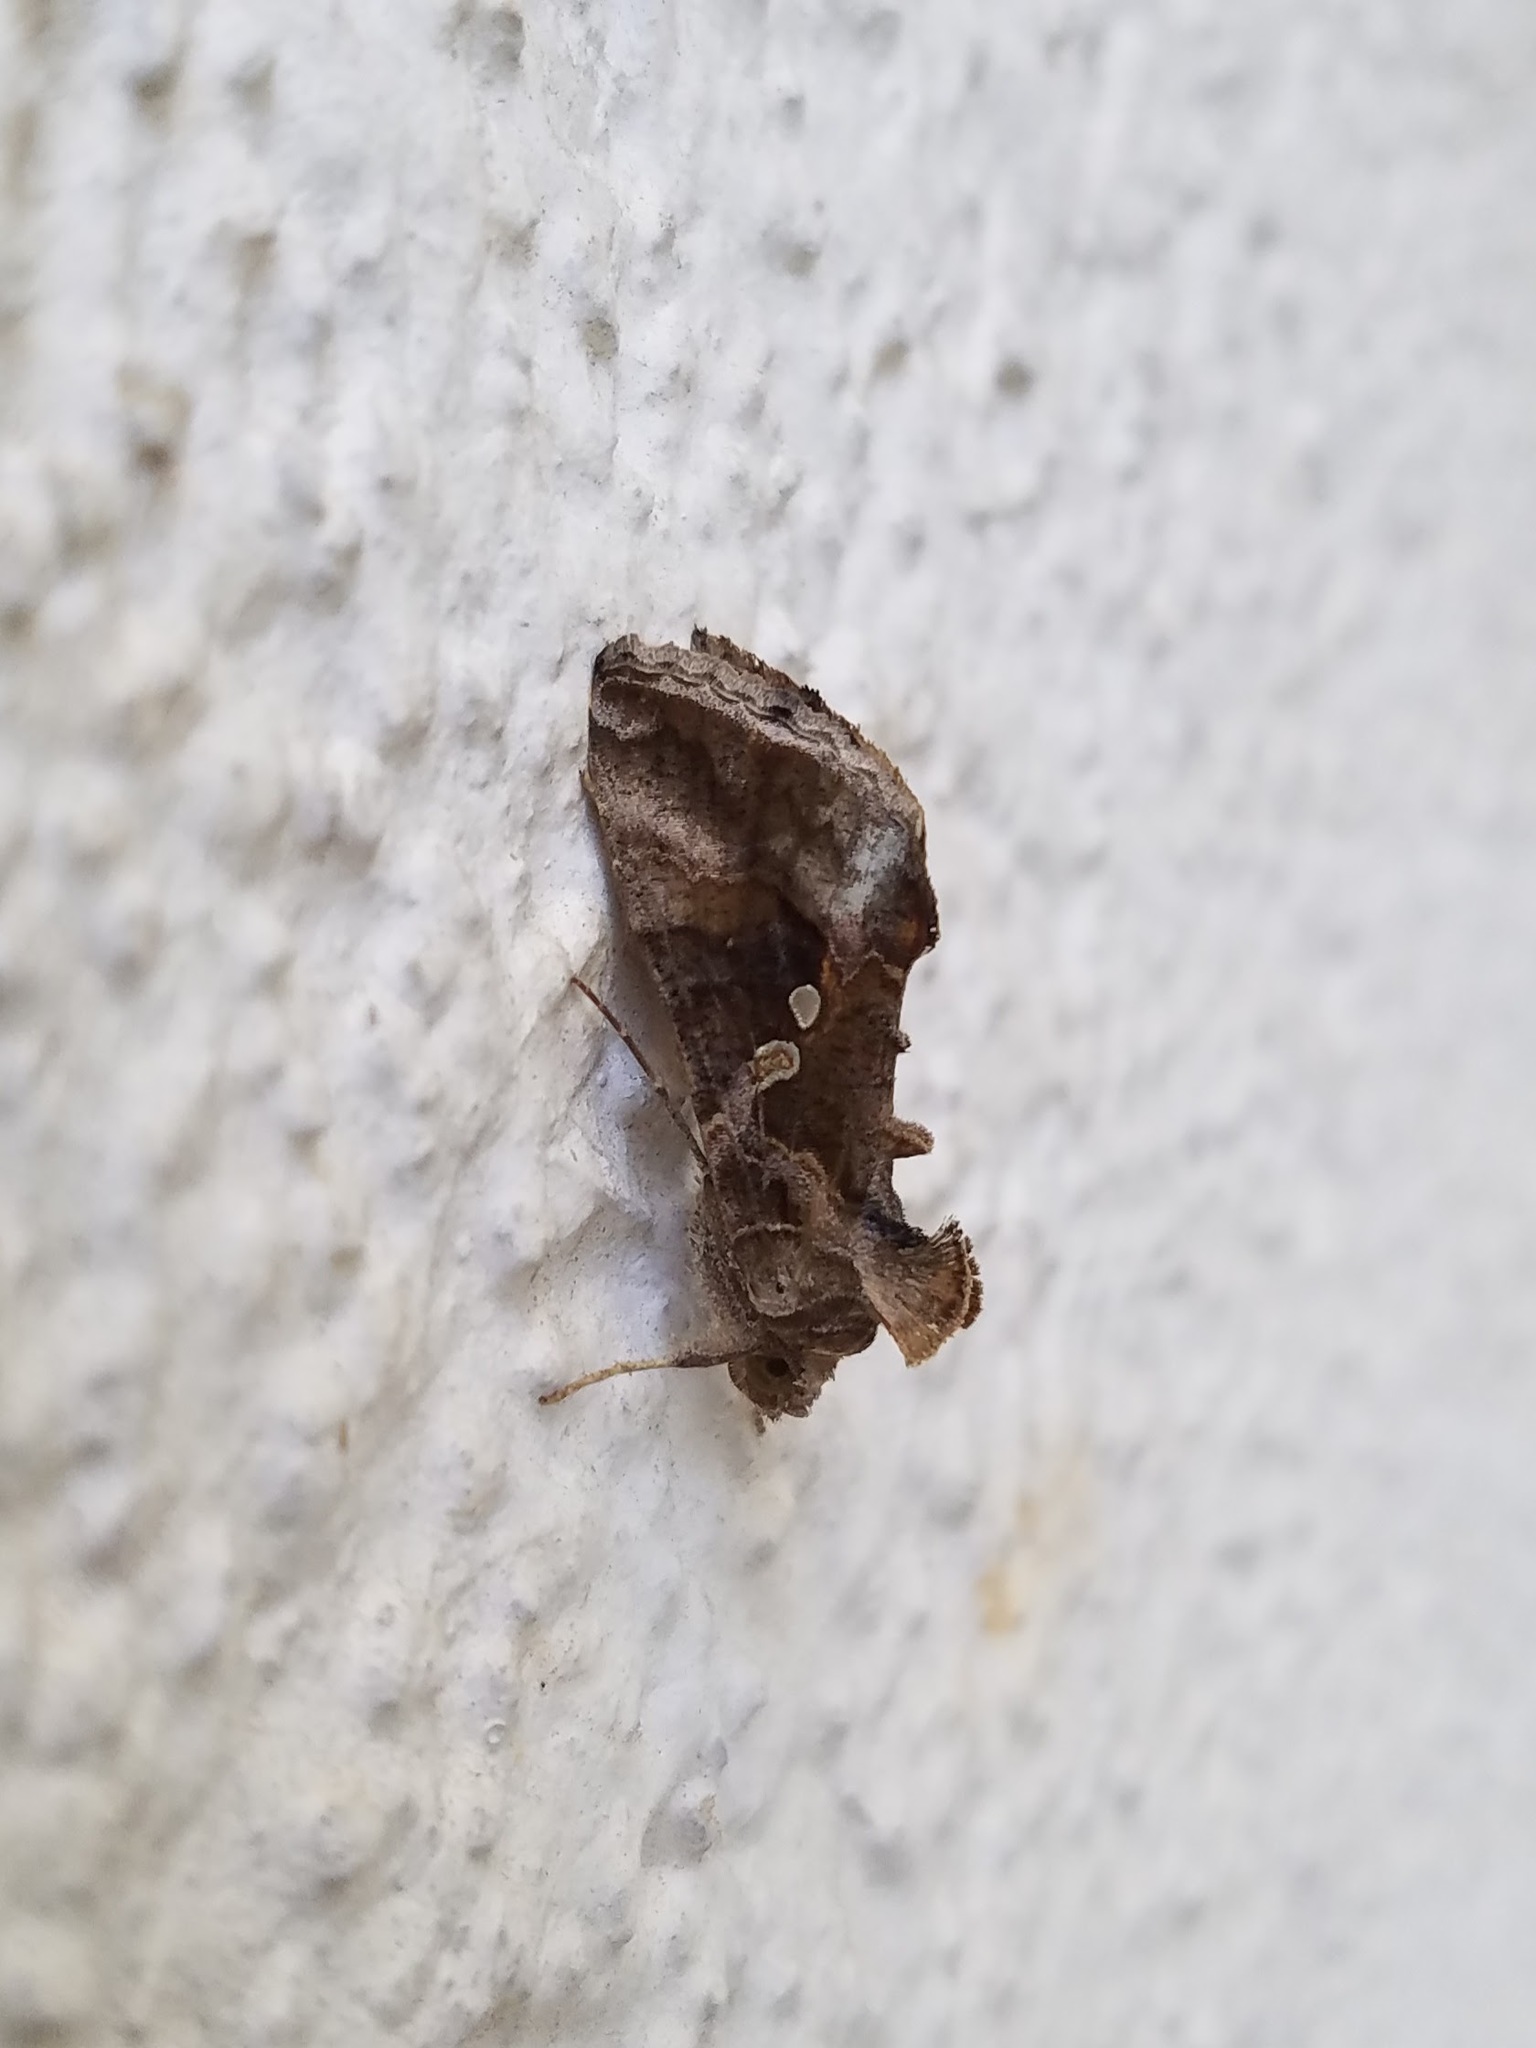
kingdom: Animalia
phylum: Arthropoda
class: Insecta
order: Lepidoptera
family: Noctuidae
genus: Chrysodeixis
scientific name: Chrysodeixis includens
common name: Cutworm moth
